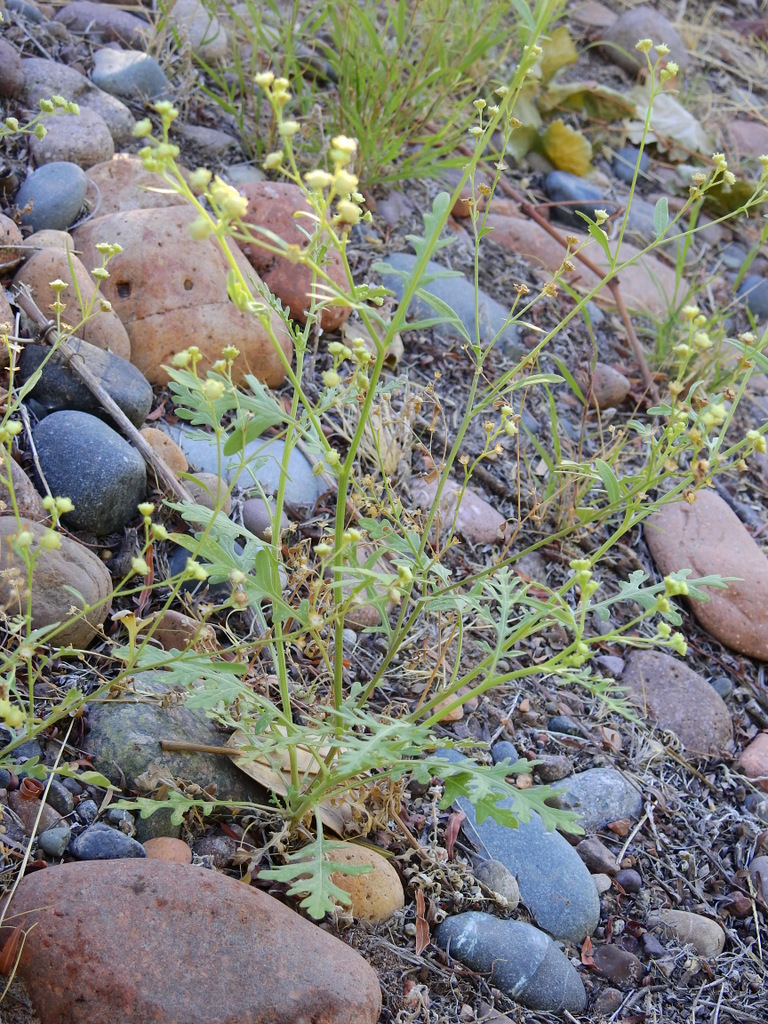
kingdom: Plantae
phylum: Tracheophyta
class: Magnoliopsida
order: Asterales
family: Asteraceae
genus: Parthenium
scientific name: Parthenium hysterophorus
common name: Santa maria feverfew
